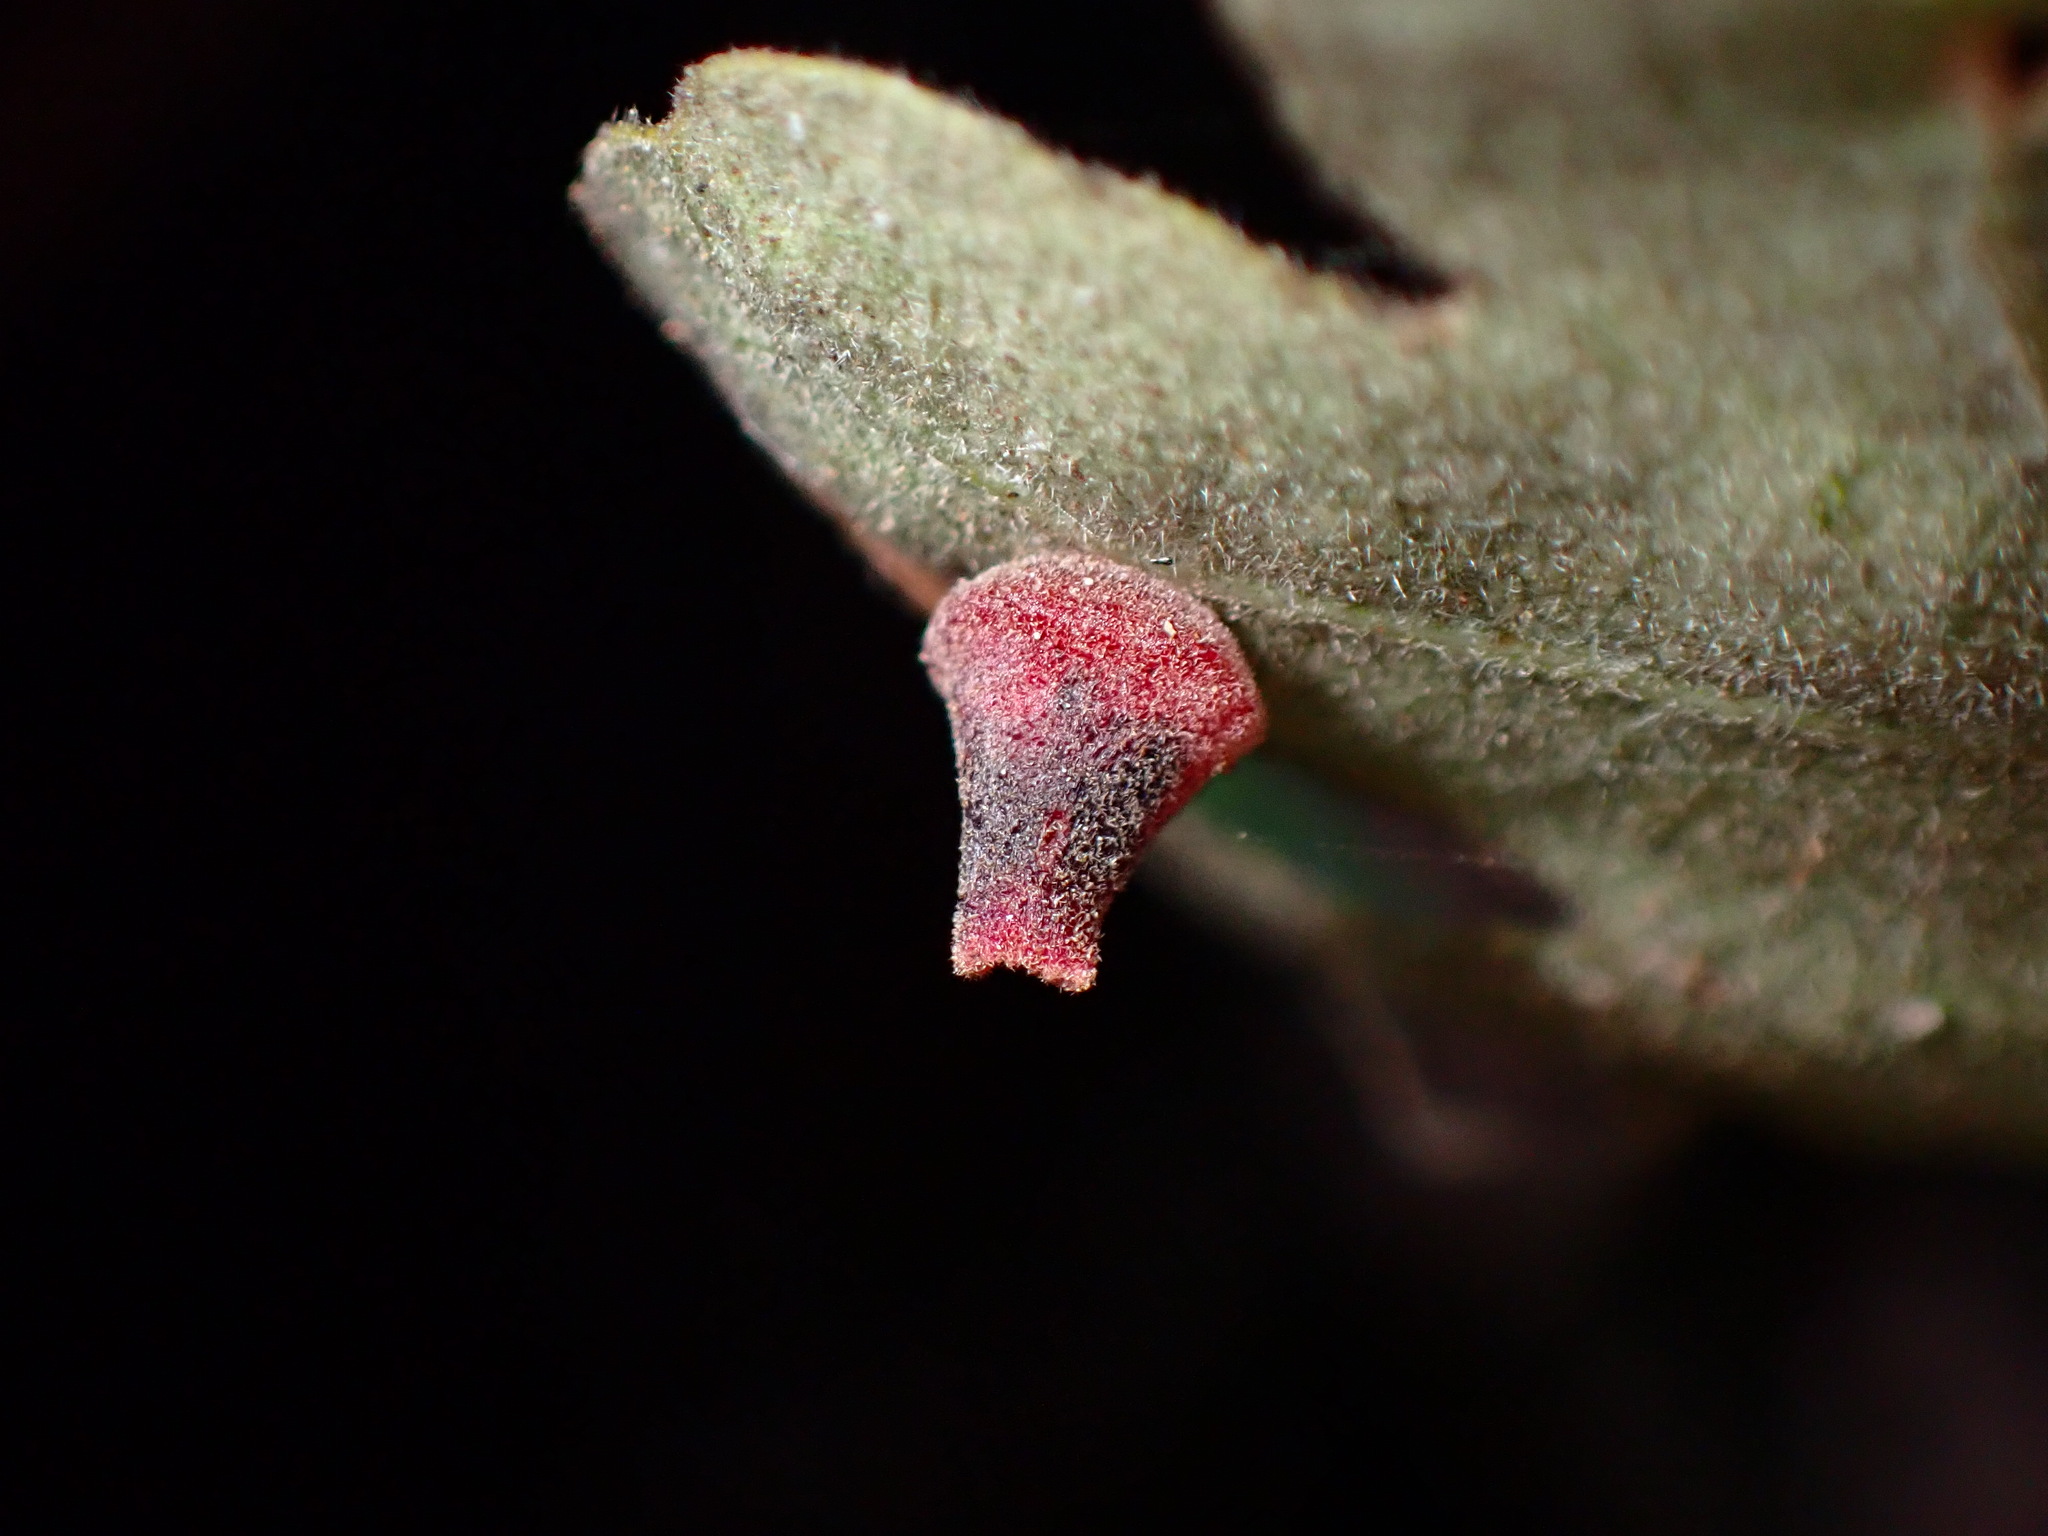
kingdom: Animalia
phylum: Arthropoda
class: Insecta
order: Hymenoptera
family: Cynipidae
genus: Andricus
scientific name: Andricus
